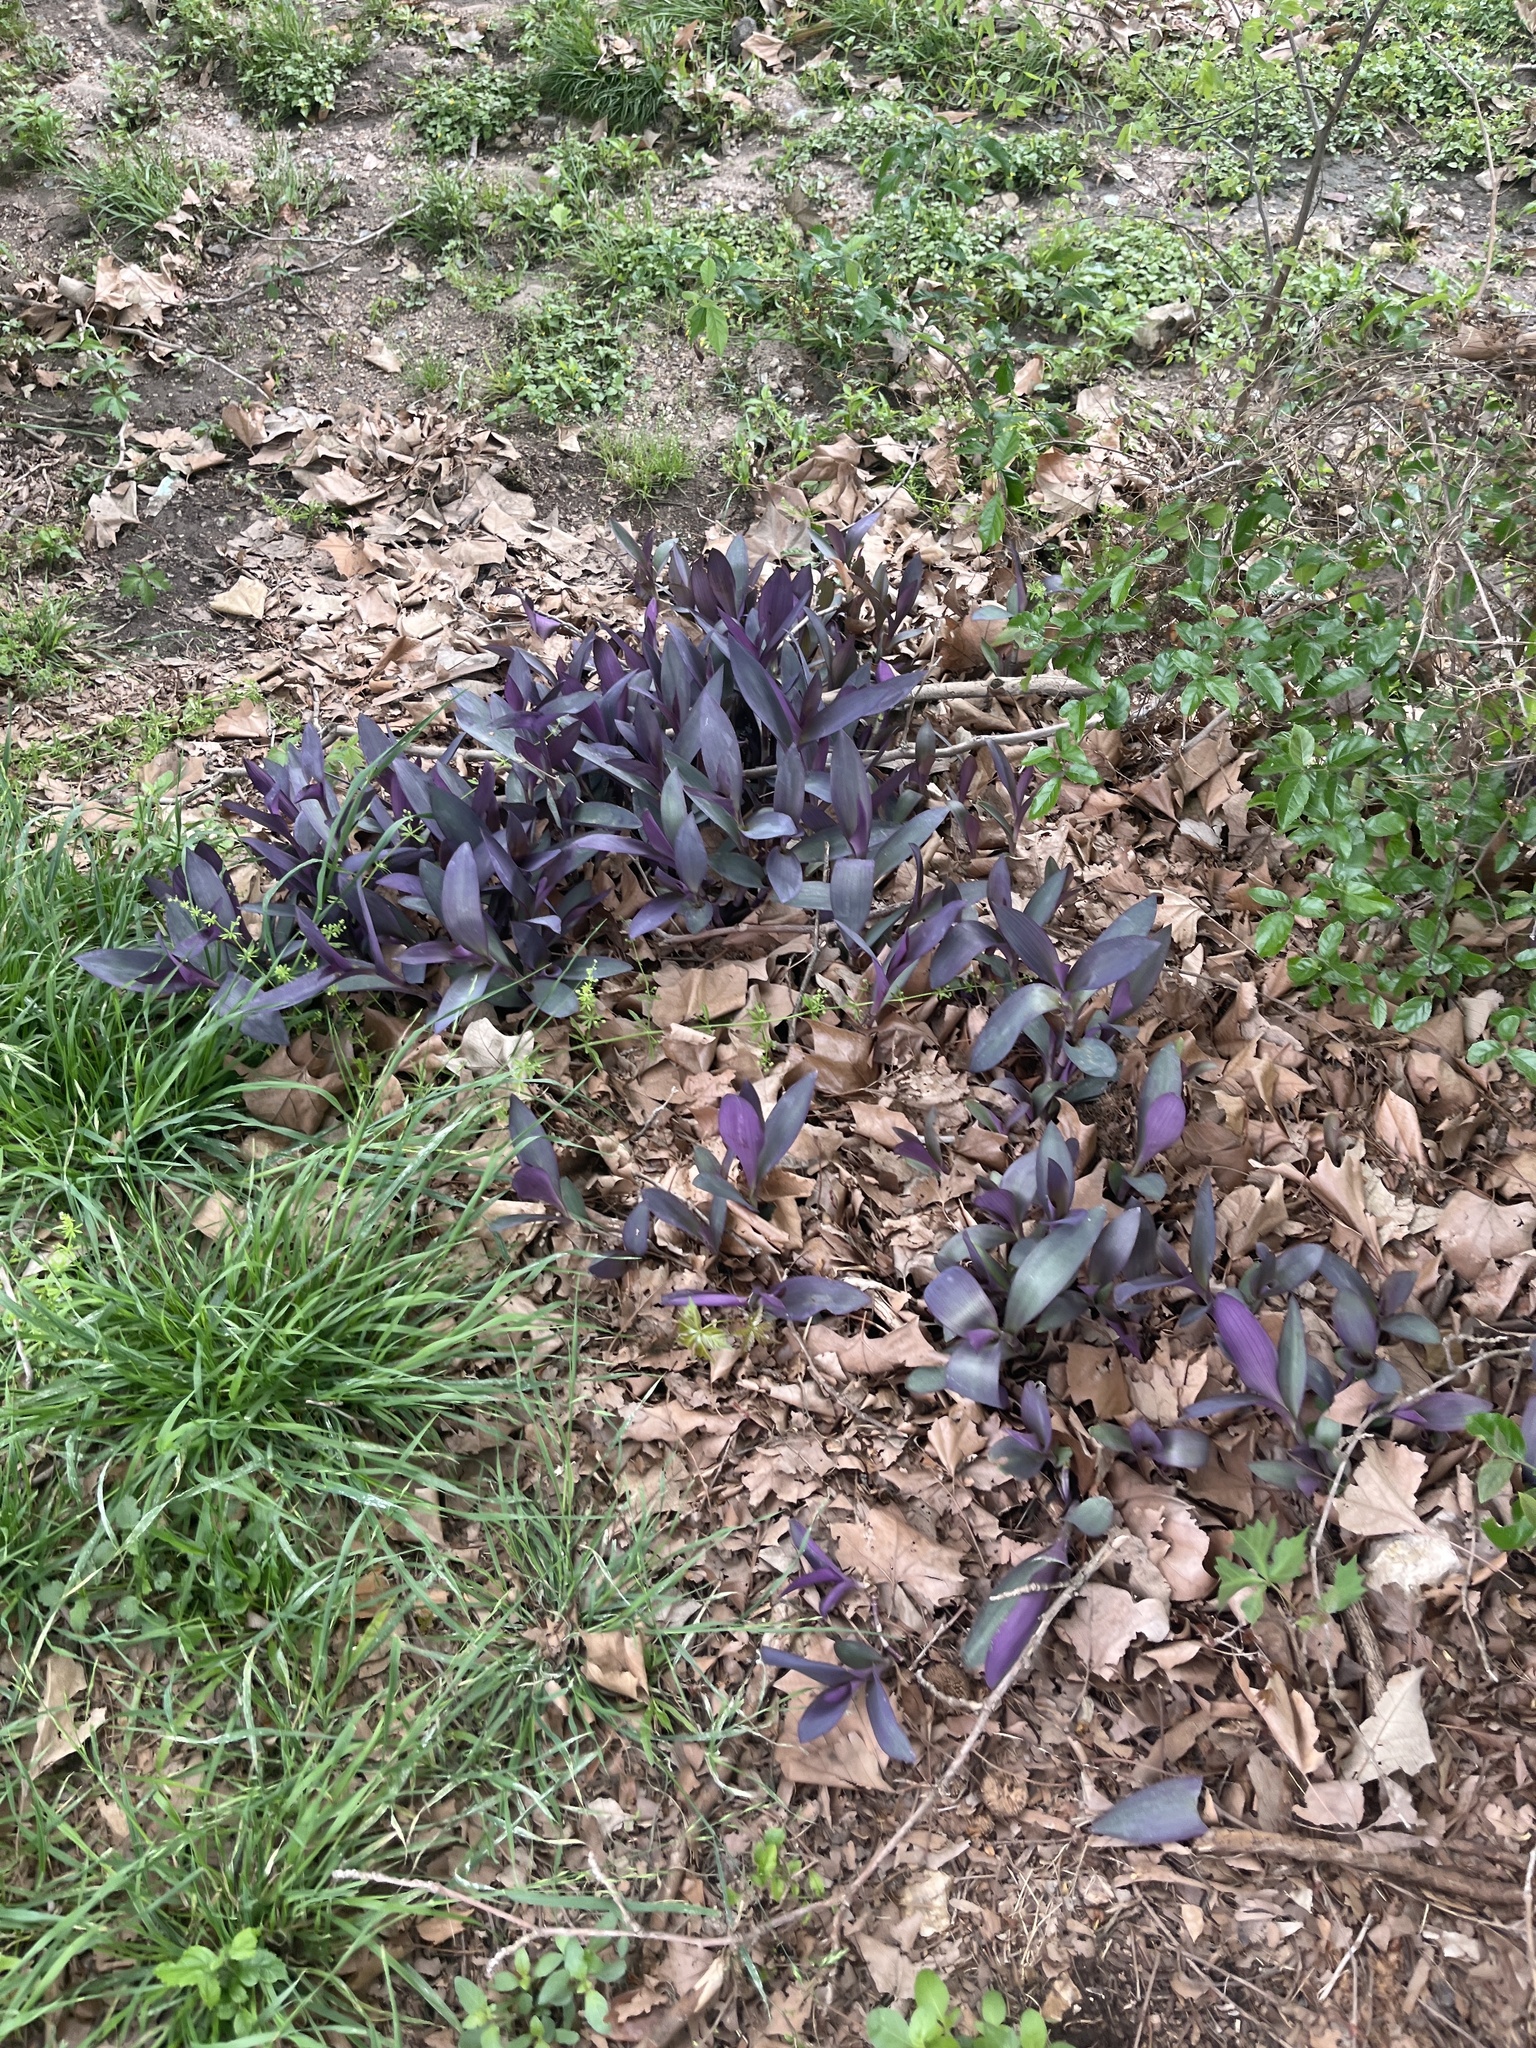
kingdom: Plantae
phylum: Tracheophyta
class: Liliopsida
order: Commelinales
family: Commelinaceae
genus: Tradescantia
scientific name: Tradescantia pallida
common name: Purpleheart
